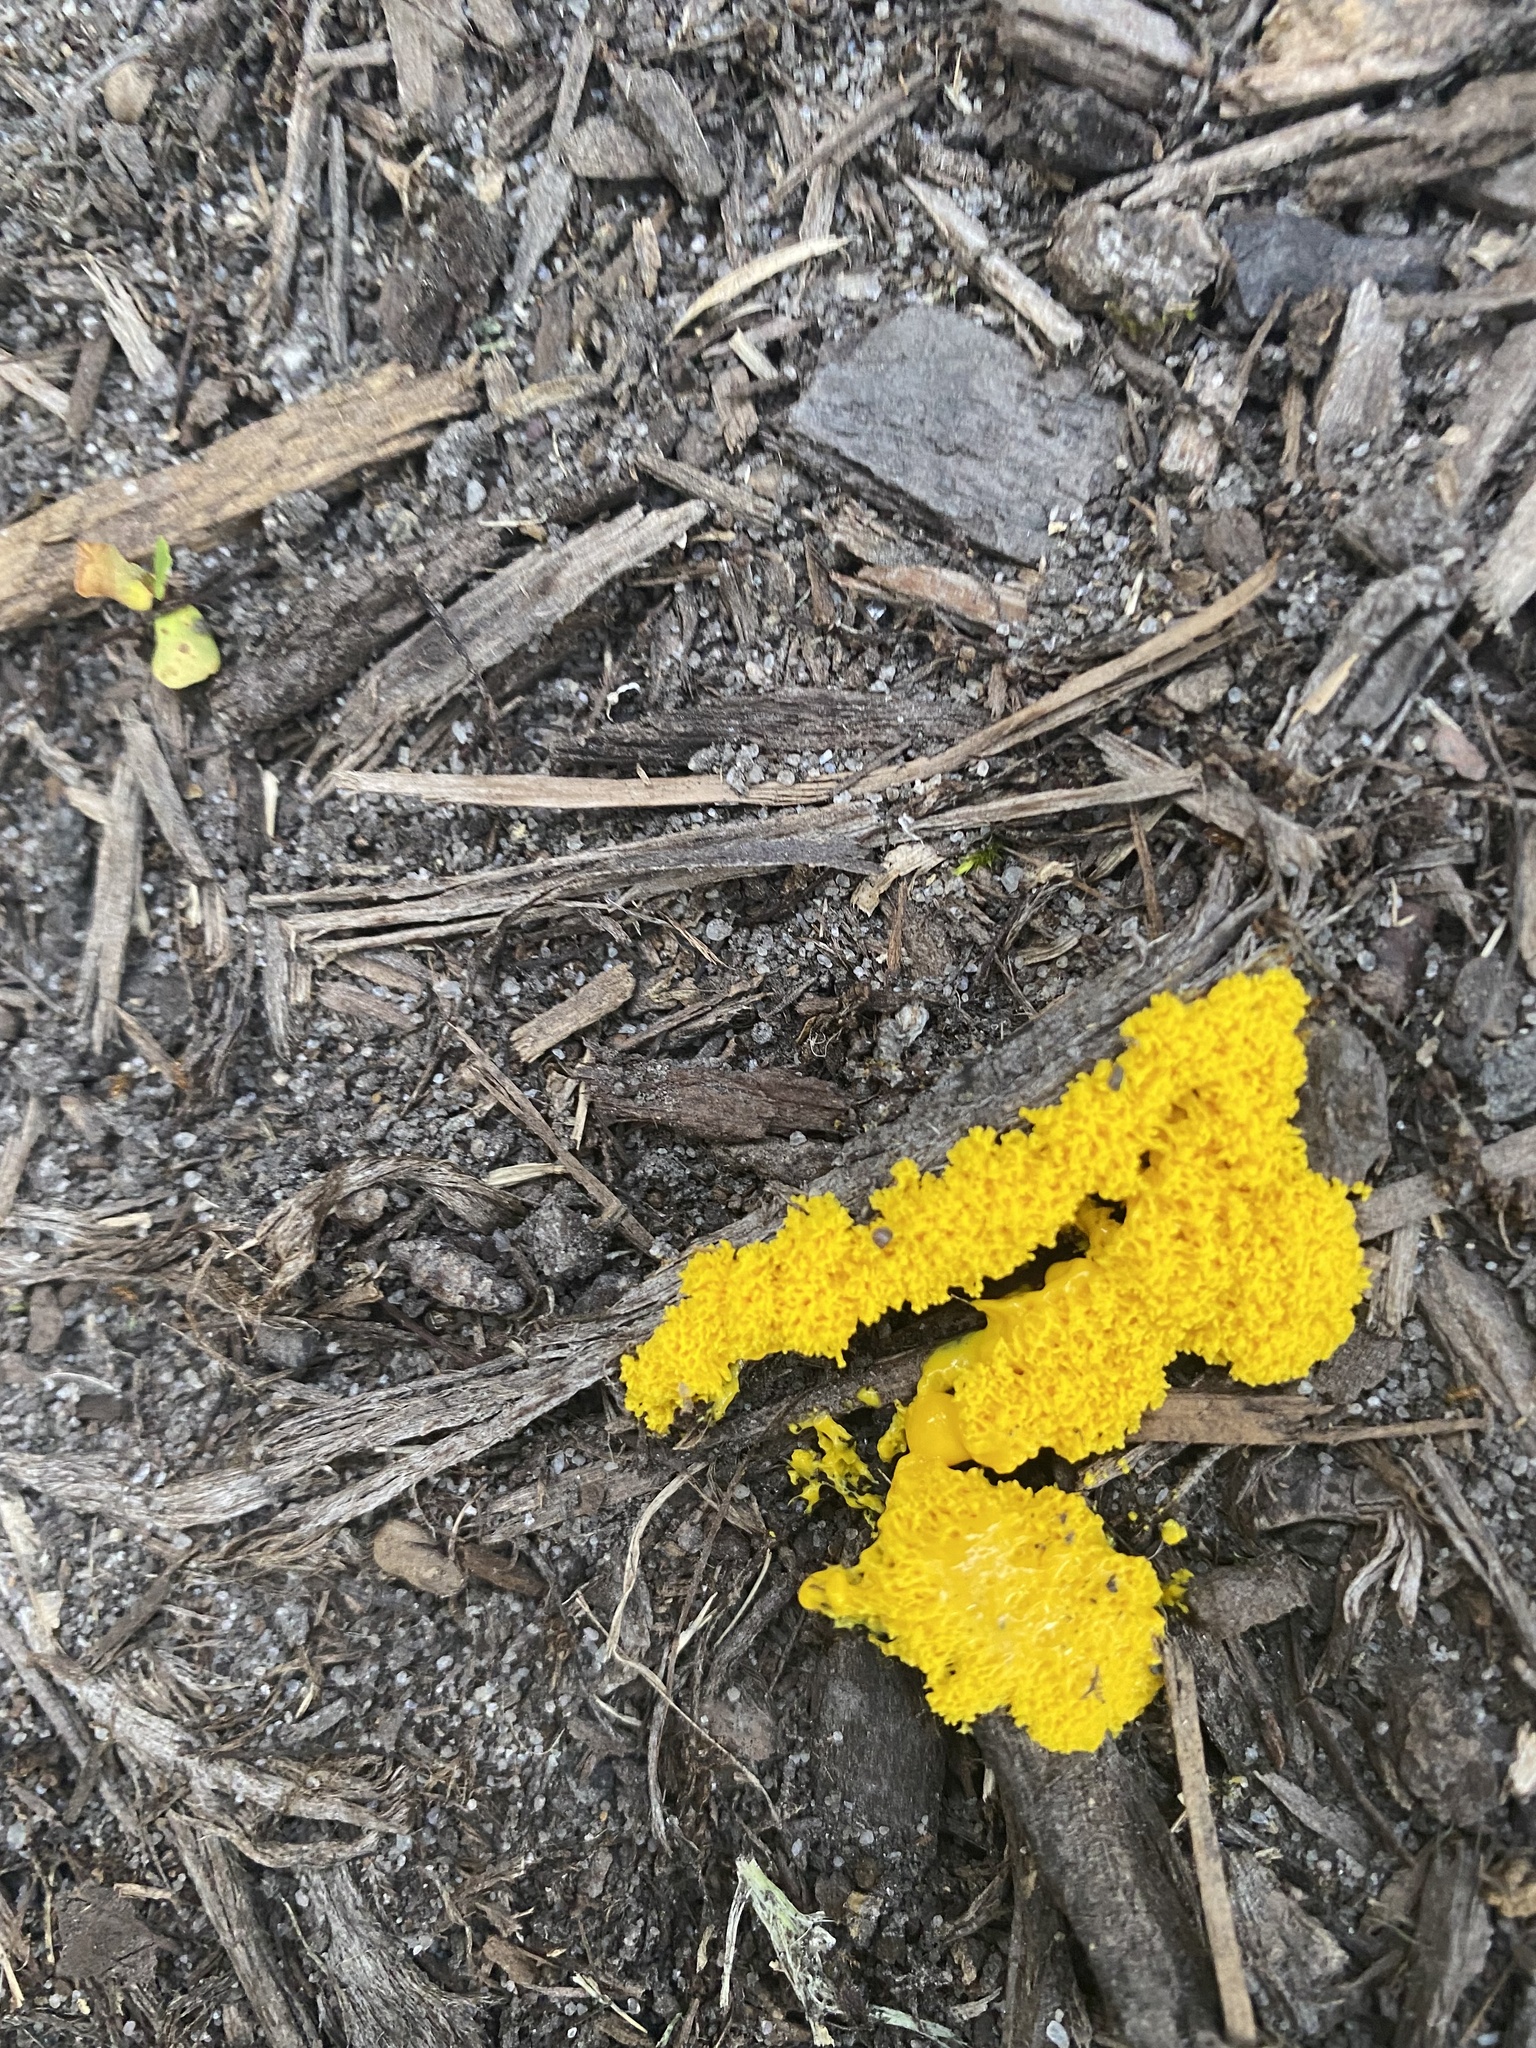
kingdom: Protozoa
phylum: Mycetozoa
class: Myxomycetes
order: Physarales
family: Physaraceae
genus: Fuligo
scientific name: Fuligo septica
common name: Dog vomit slime mold
